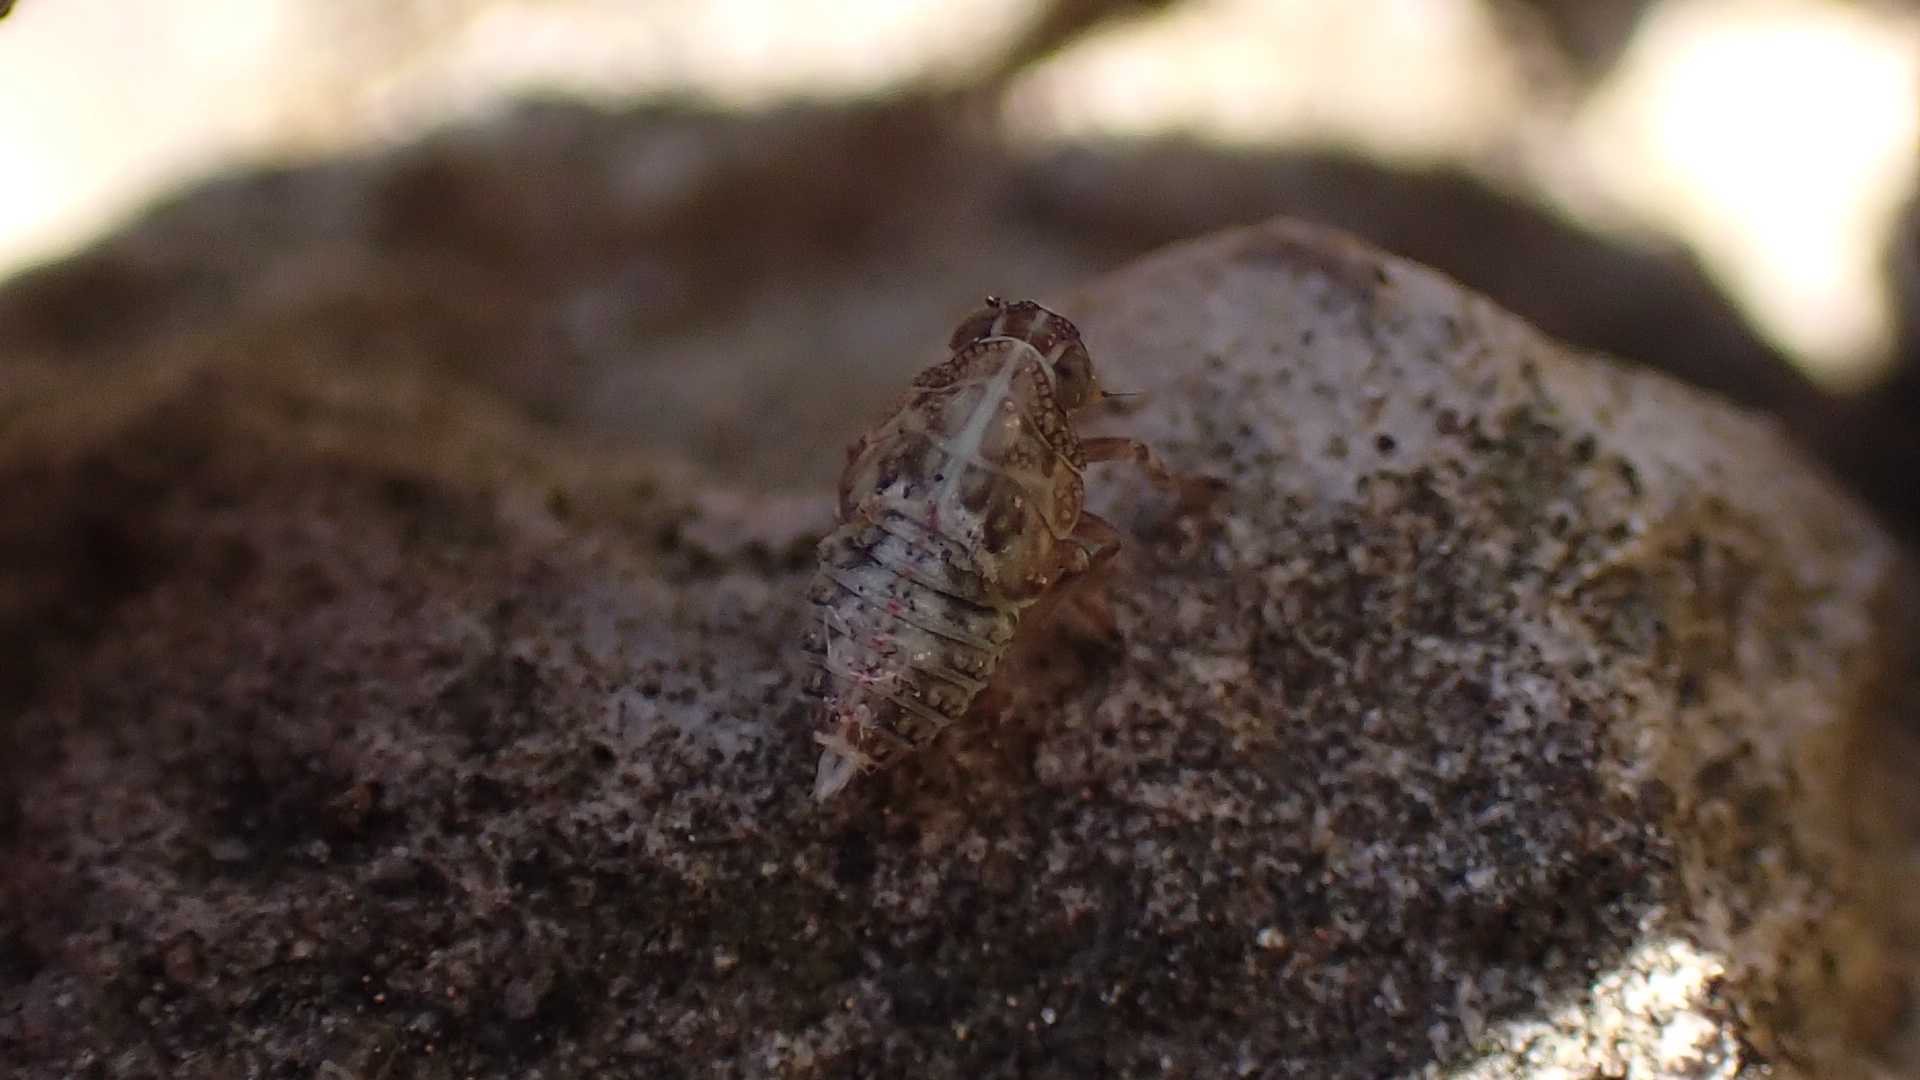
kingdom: Animalia
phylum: Arthropoda
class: Insecta
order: Hemiptera
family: Issidae
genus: Issus
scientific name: Issus
